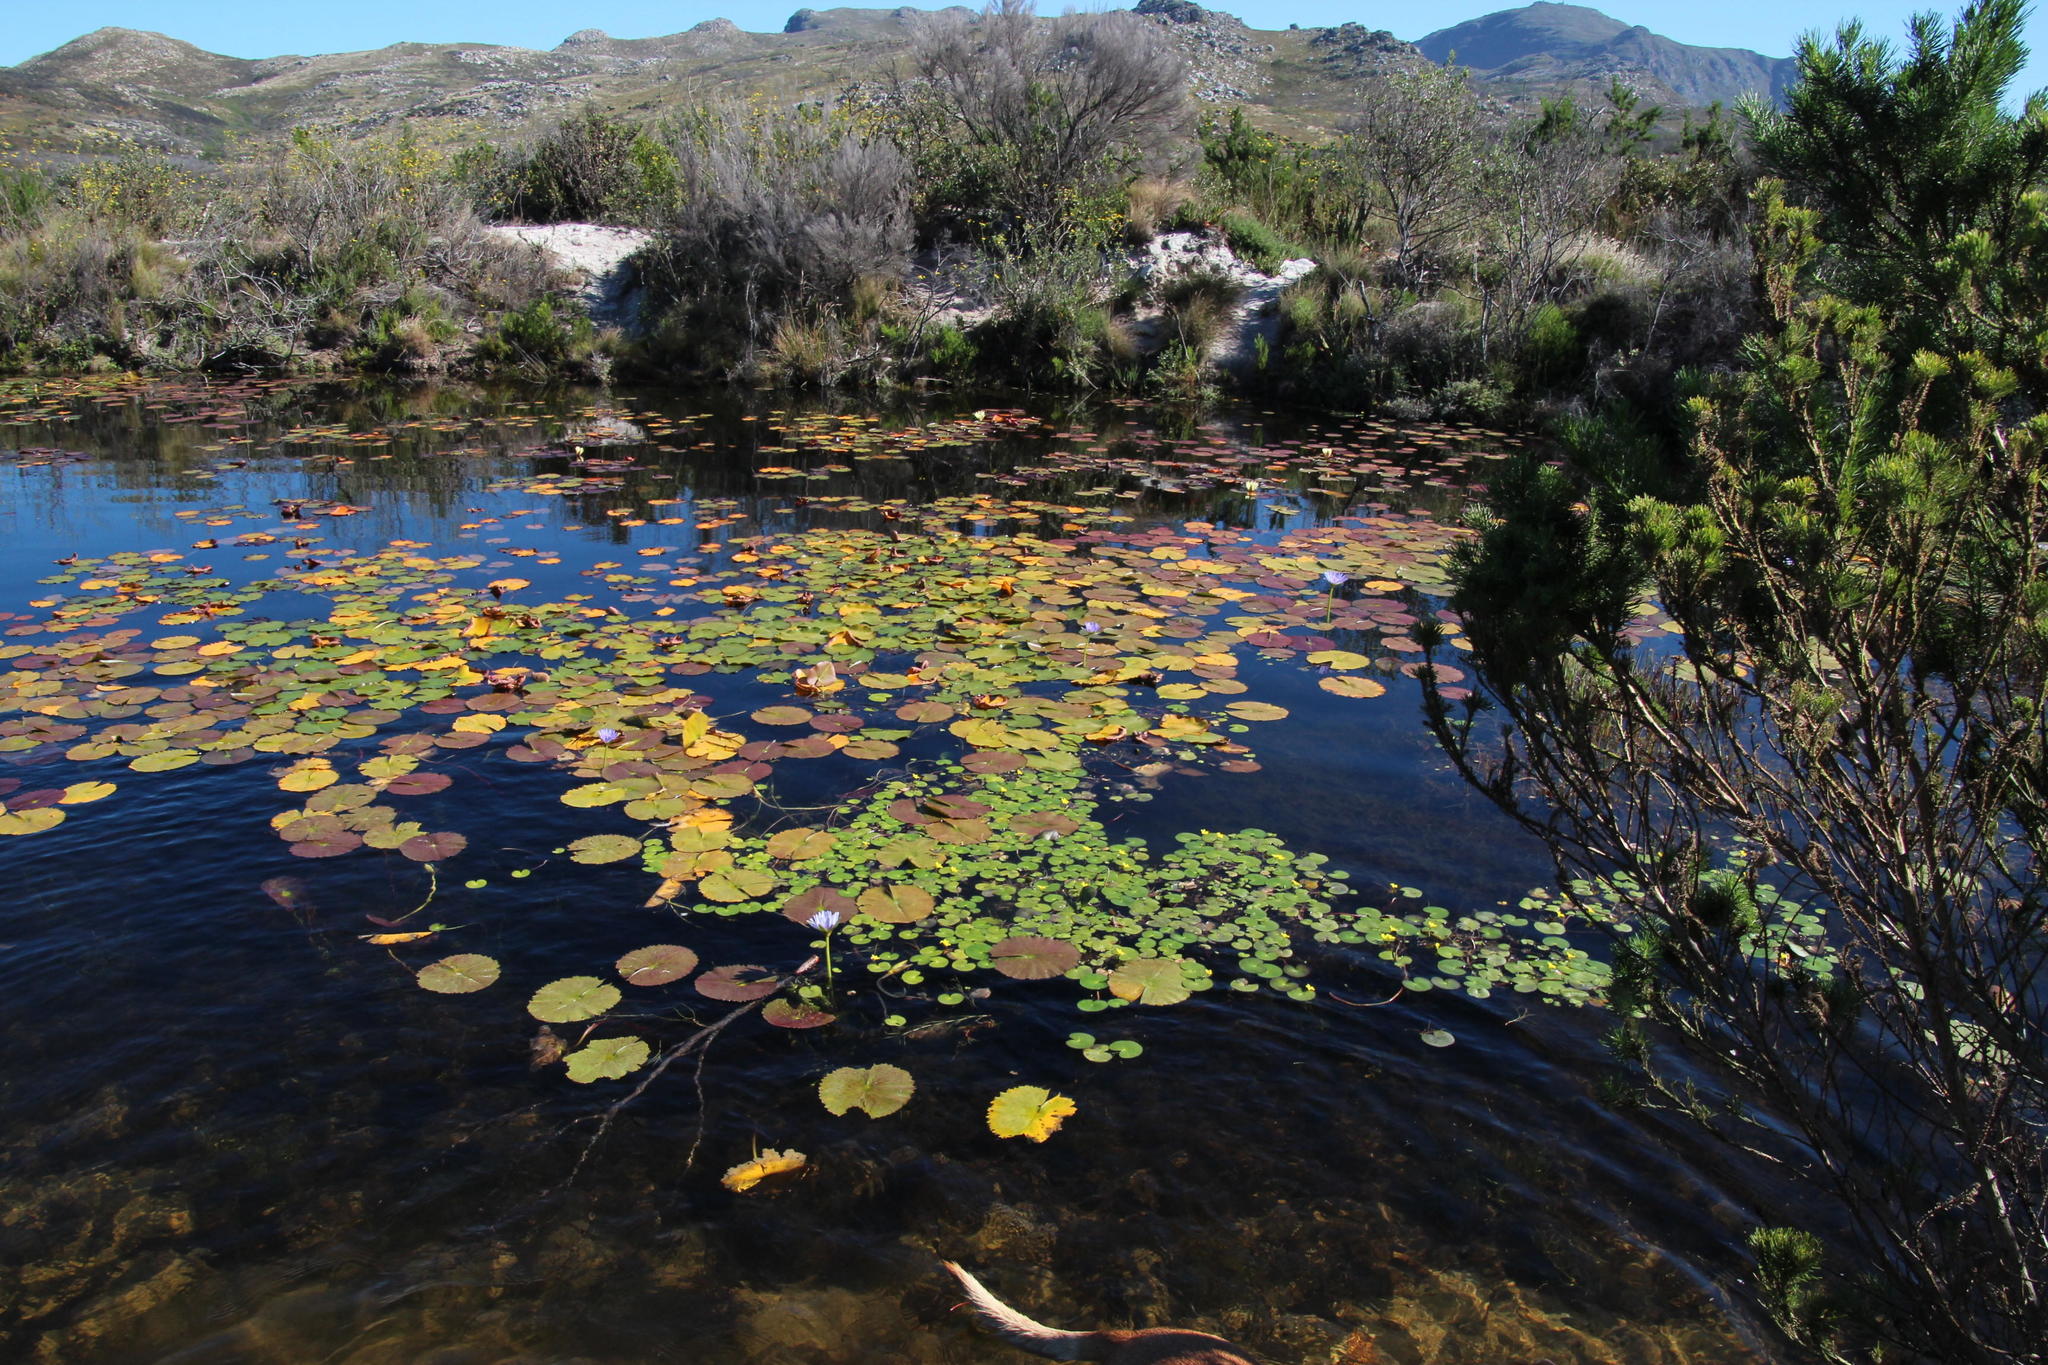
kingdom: Plantae
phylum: Tracheophyta
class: Magnoliopsida
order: Nymphaeales
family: Nymphaeaceae
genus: Nymphaea
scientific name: Nymphaea nouchali
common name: Blue lotus
